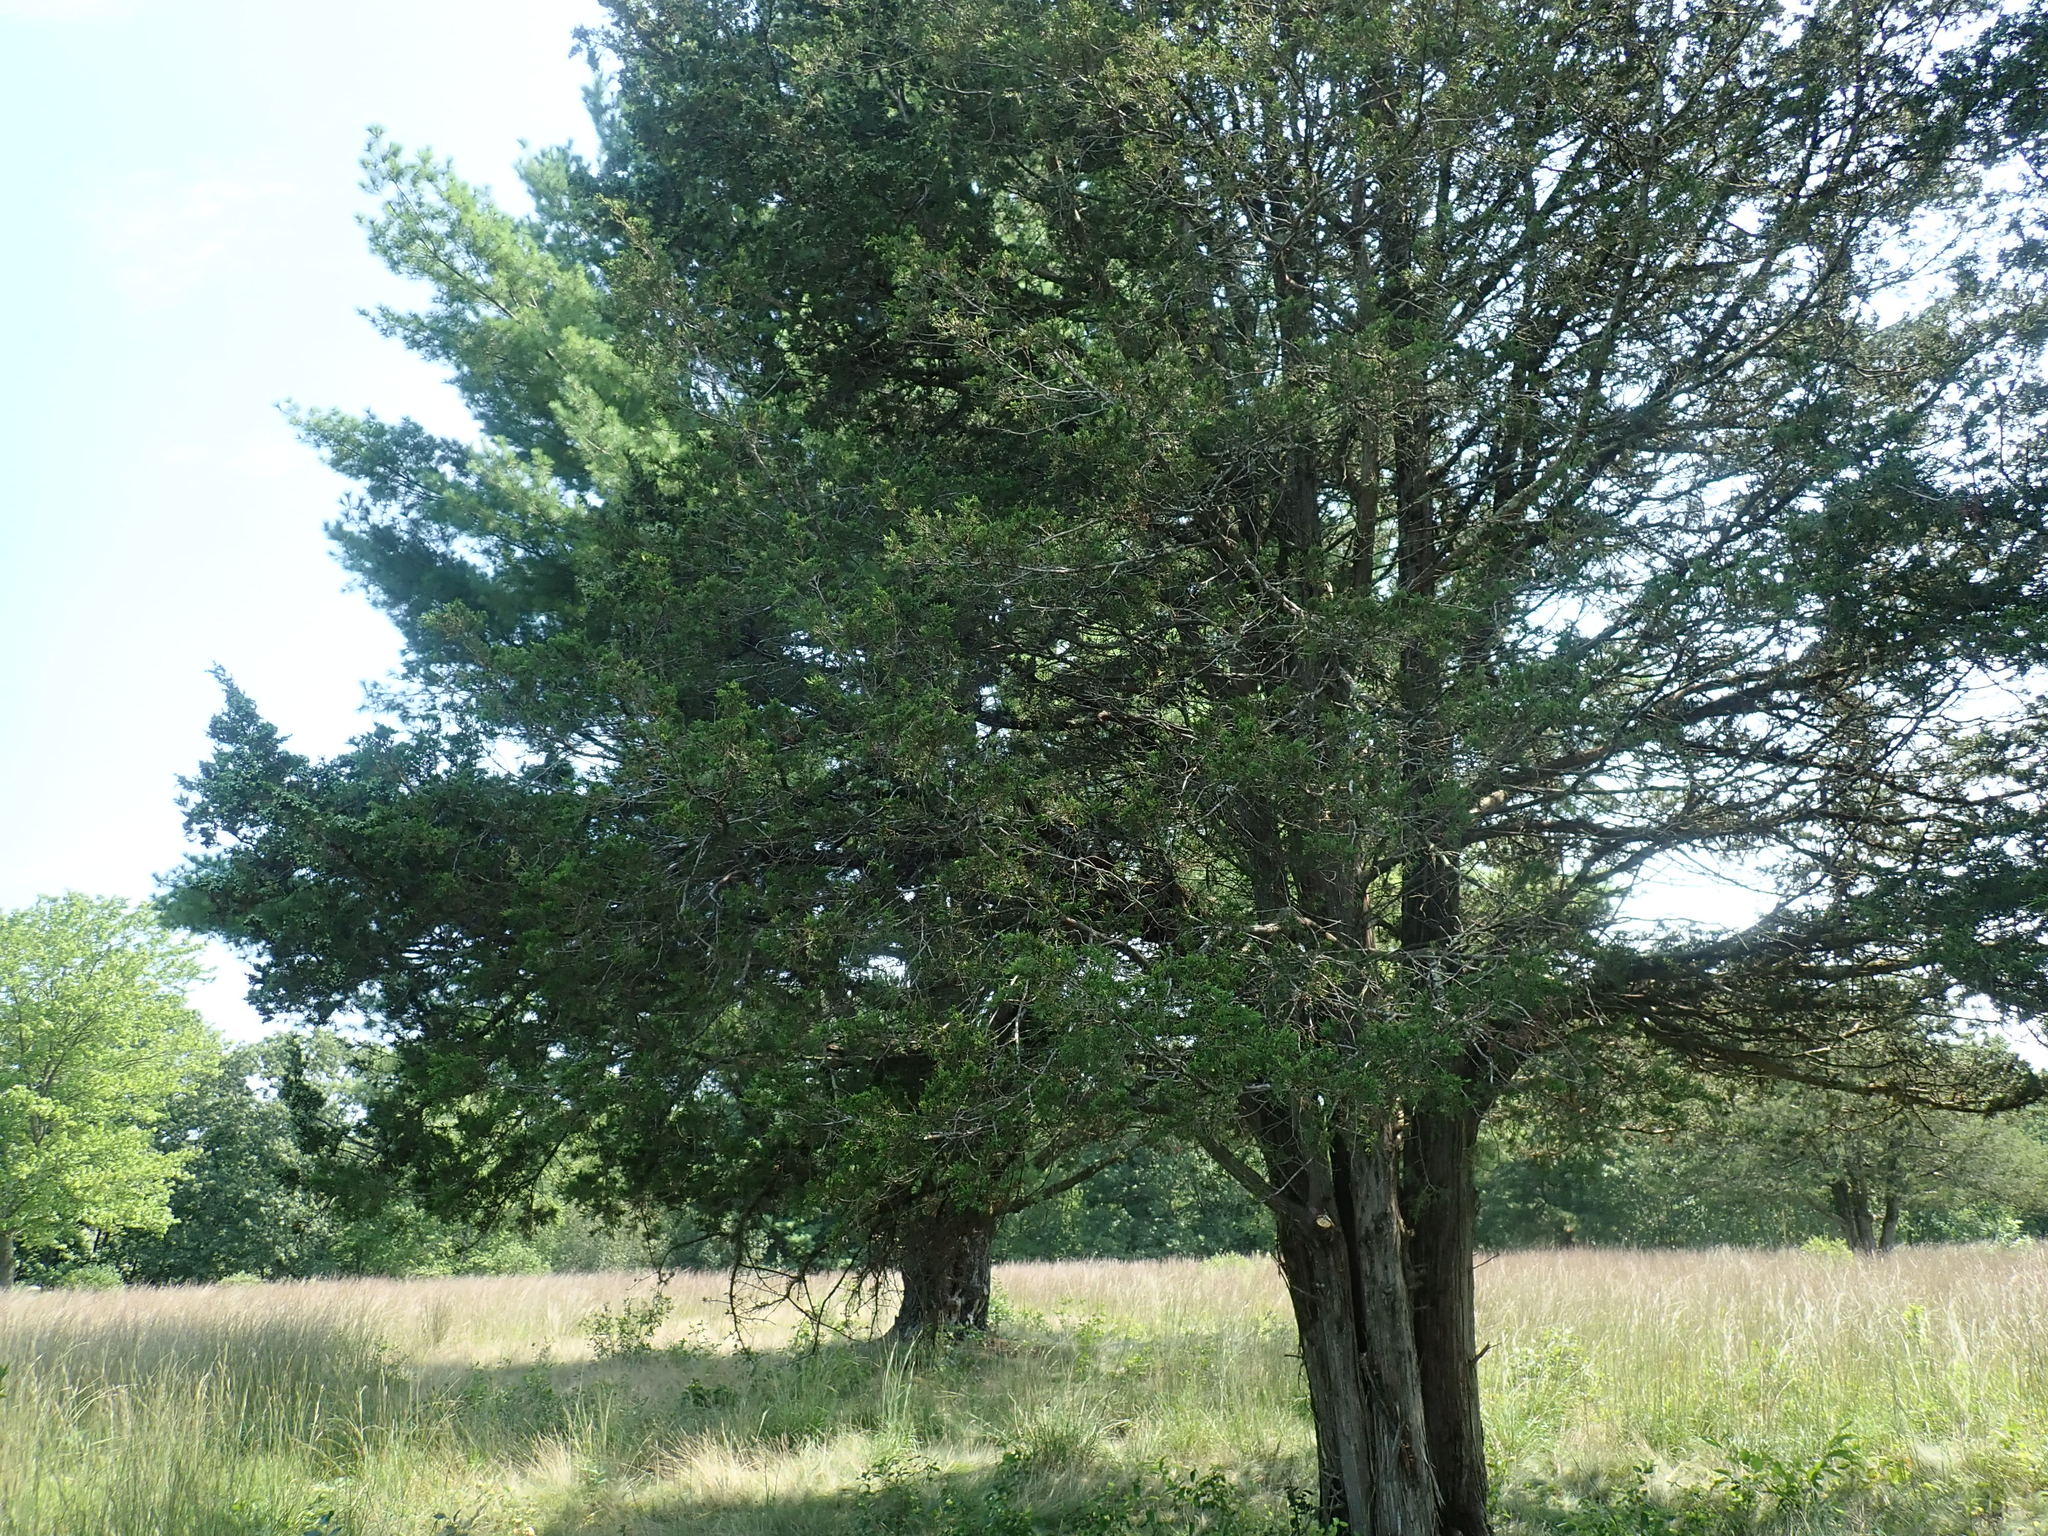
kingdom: Plantae
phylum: Tracheophyta
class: Pinopsida
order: Pinales
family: Cupressaceae
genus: Juniperus
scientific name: Juniperus virginiana
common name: Red juniper
